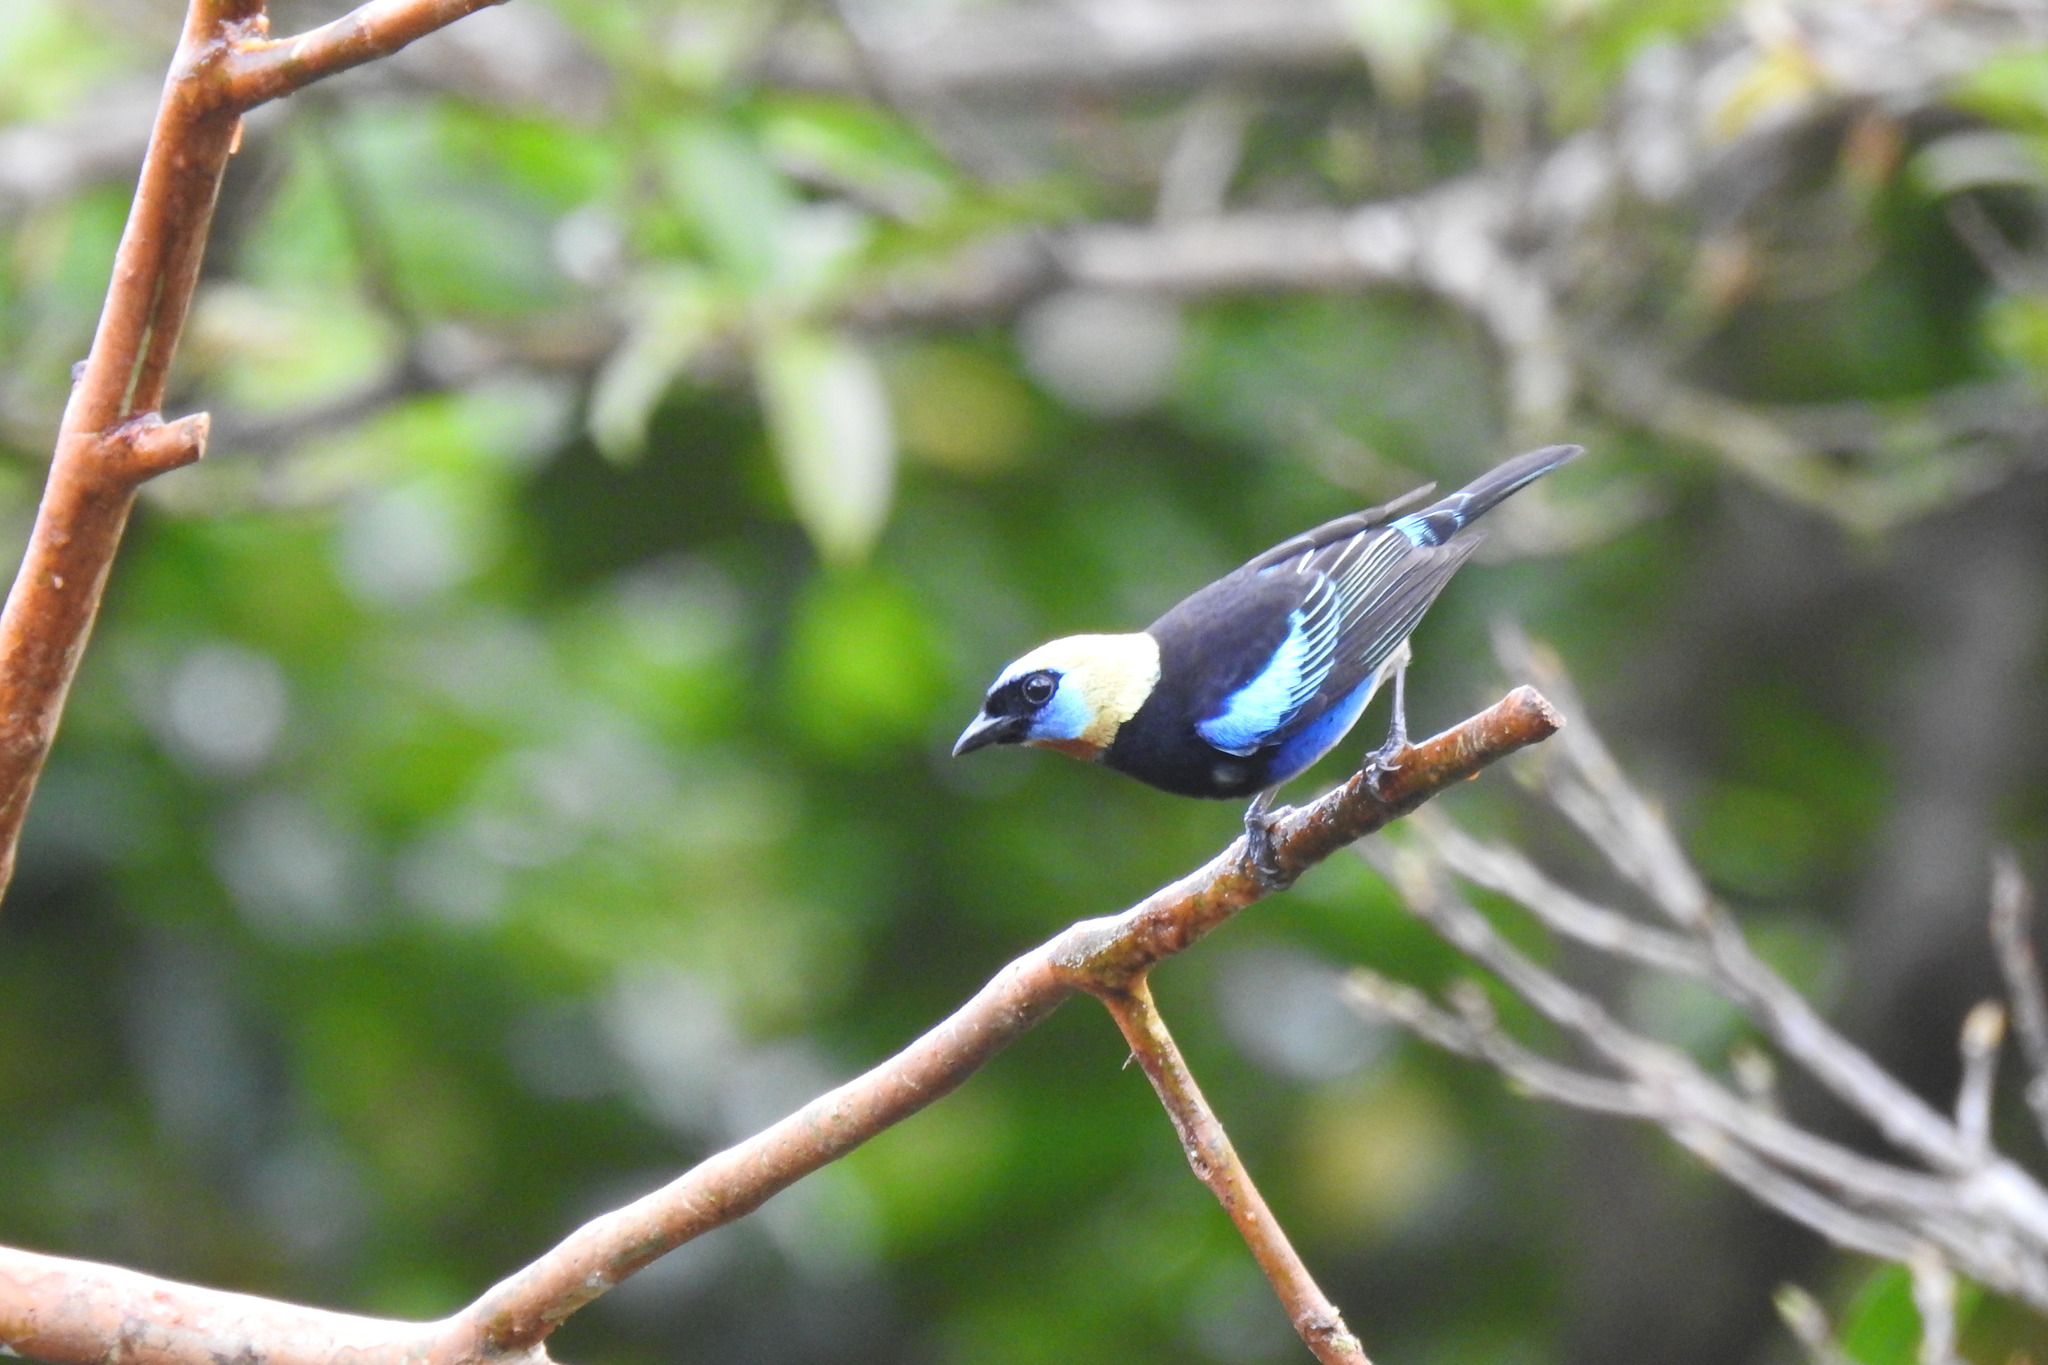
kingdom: Animalia
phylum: Chordata
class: Aves
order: Passeriformes
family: Thraupidae
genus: Stilpnia
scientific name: Stilpnia larvata
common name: Golden-hooded tanager
